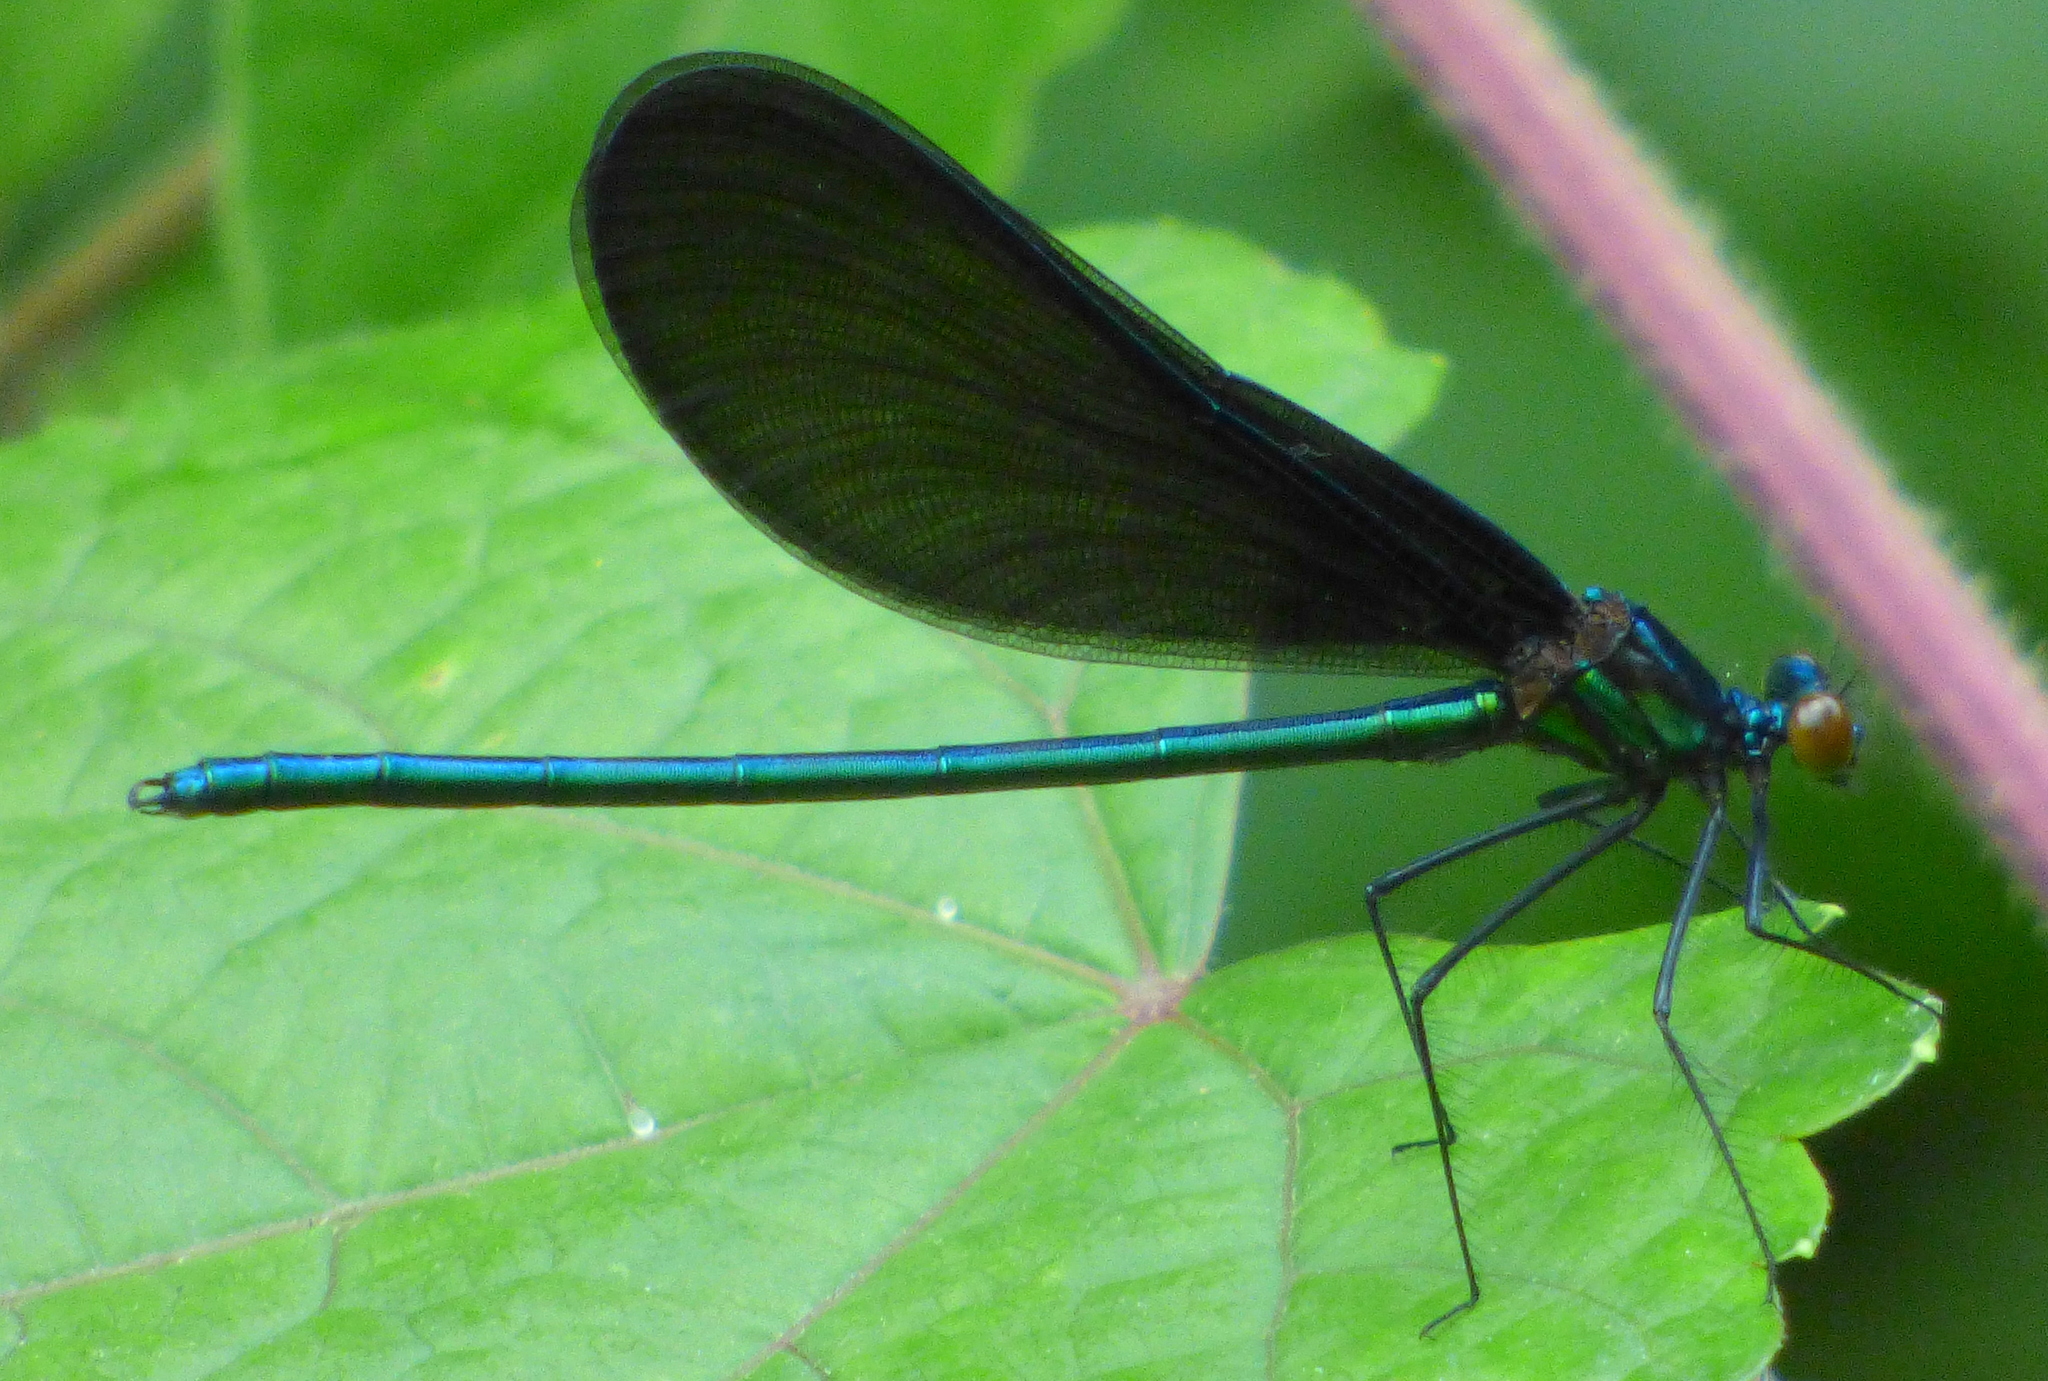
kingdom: Animalia
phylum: Arthropoda
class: Insecta
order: Odonata
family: Calopterygidae
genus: Calopteryx
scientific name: Calopteryx maculata
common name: Ebony jewelwing
